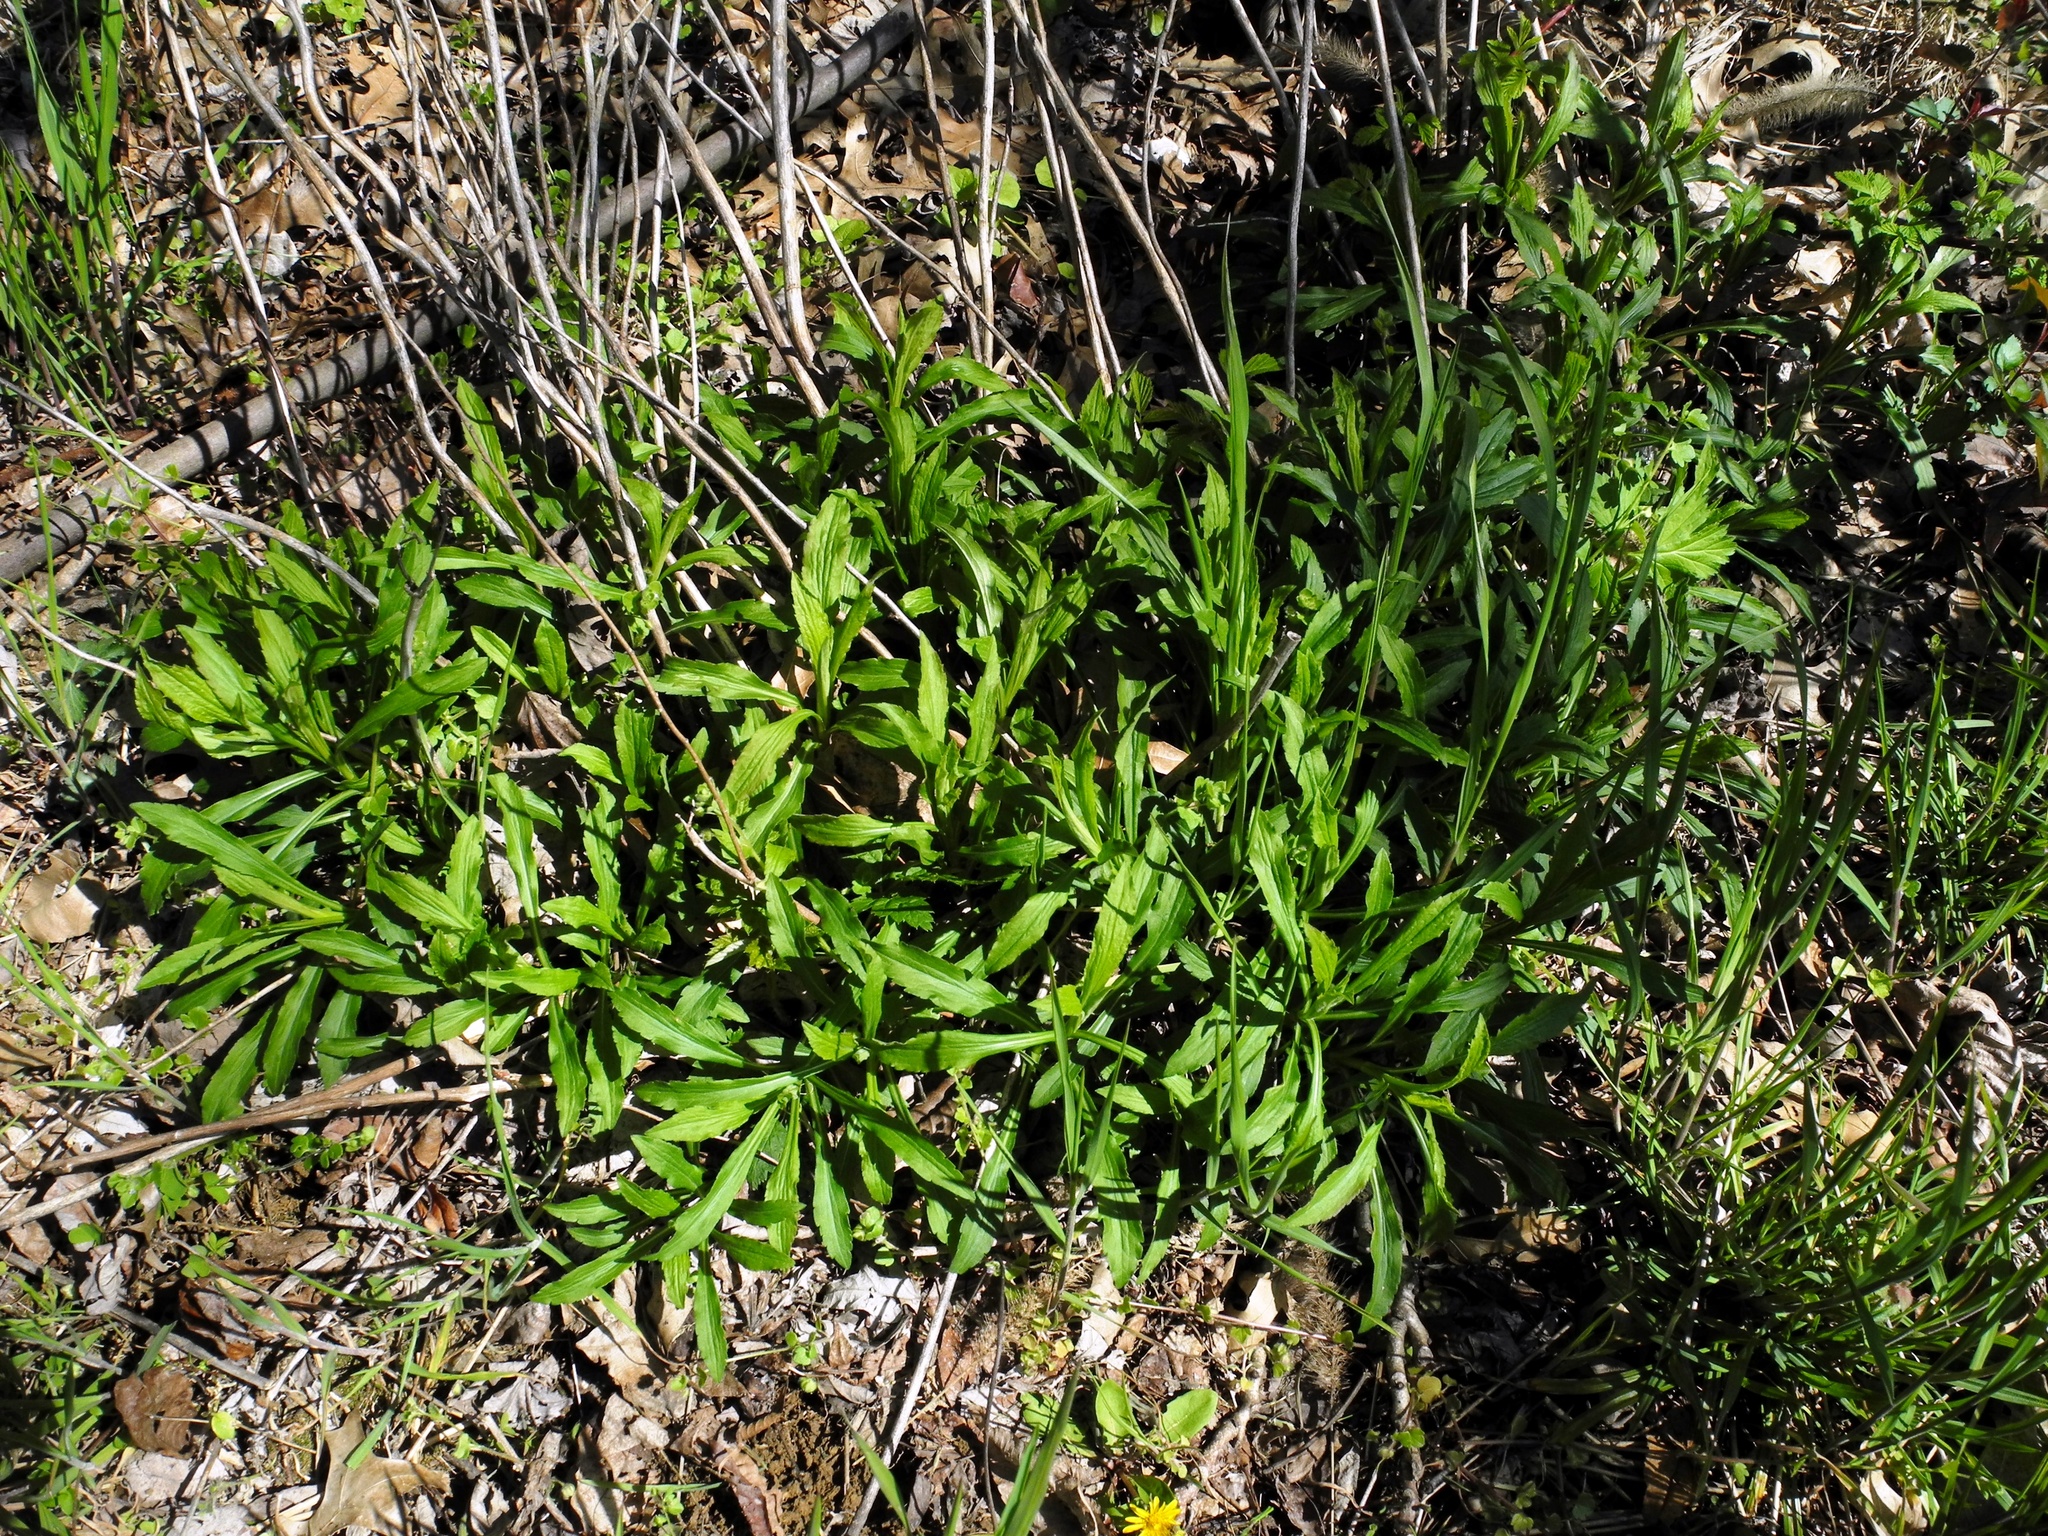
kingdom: Plantae
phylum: Tracheophyta
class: Magnoliopsida
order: Asterales
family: Asteraceae
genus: Solidago
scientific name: Solidago canadensis
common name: Canada goldenrod
